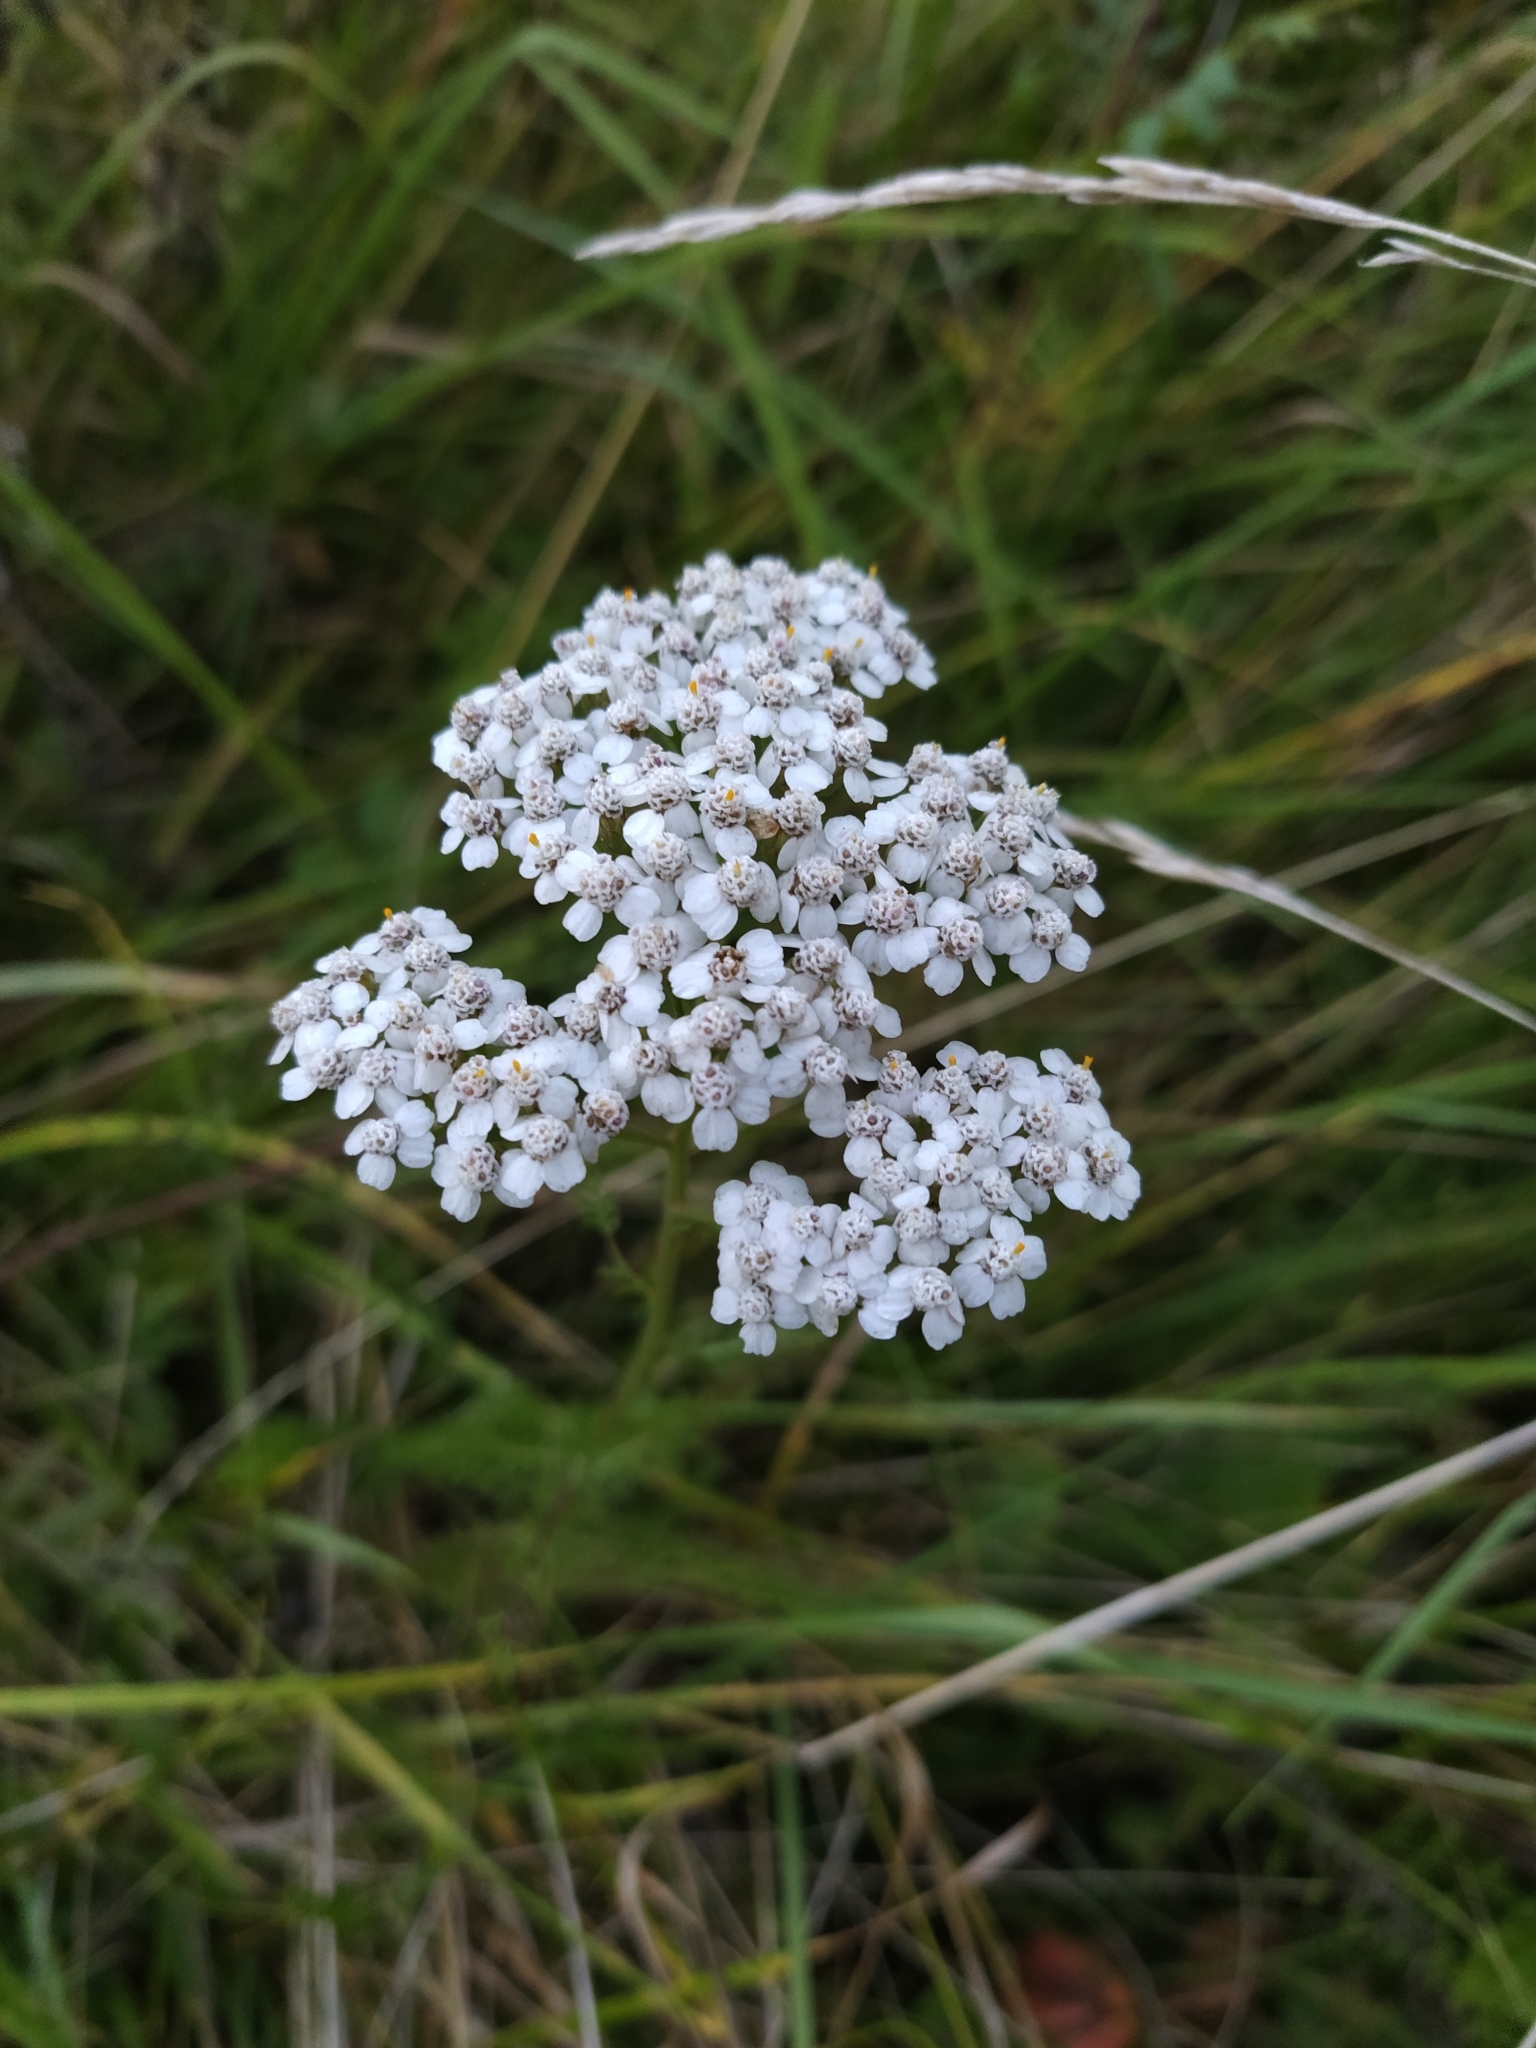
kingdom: Plantae
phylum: Tracheophyta
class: Magnoliopsida
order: Asterales
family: Asteraceae
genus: Achillea
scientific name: Achillea millefolium
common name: Yarrow
